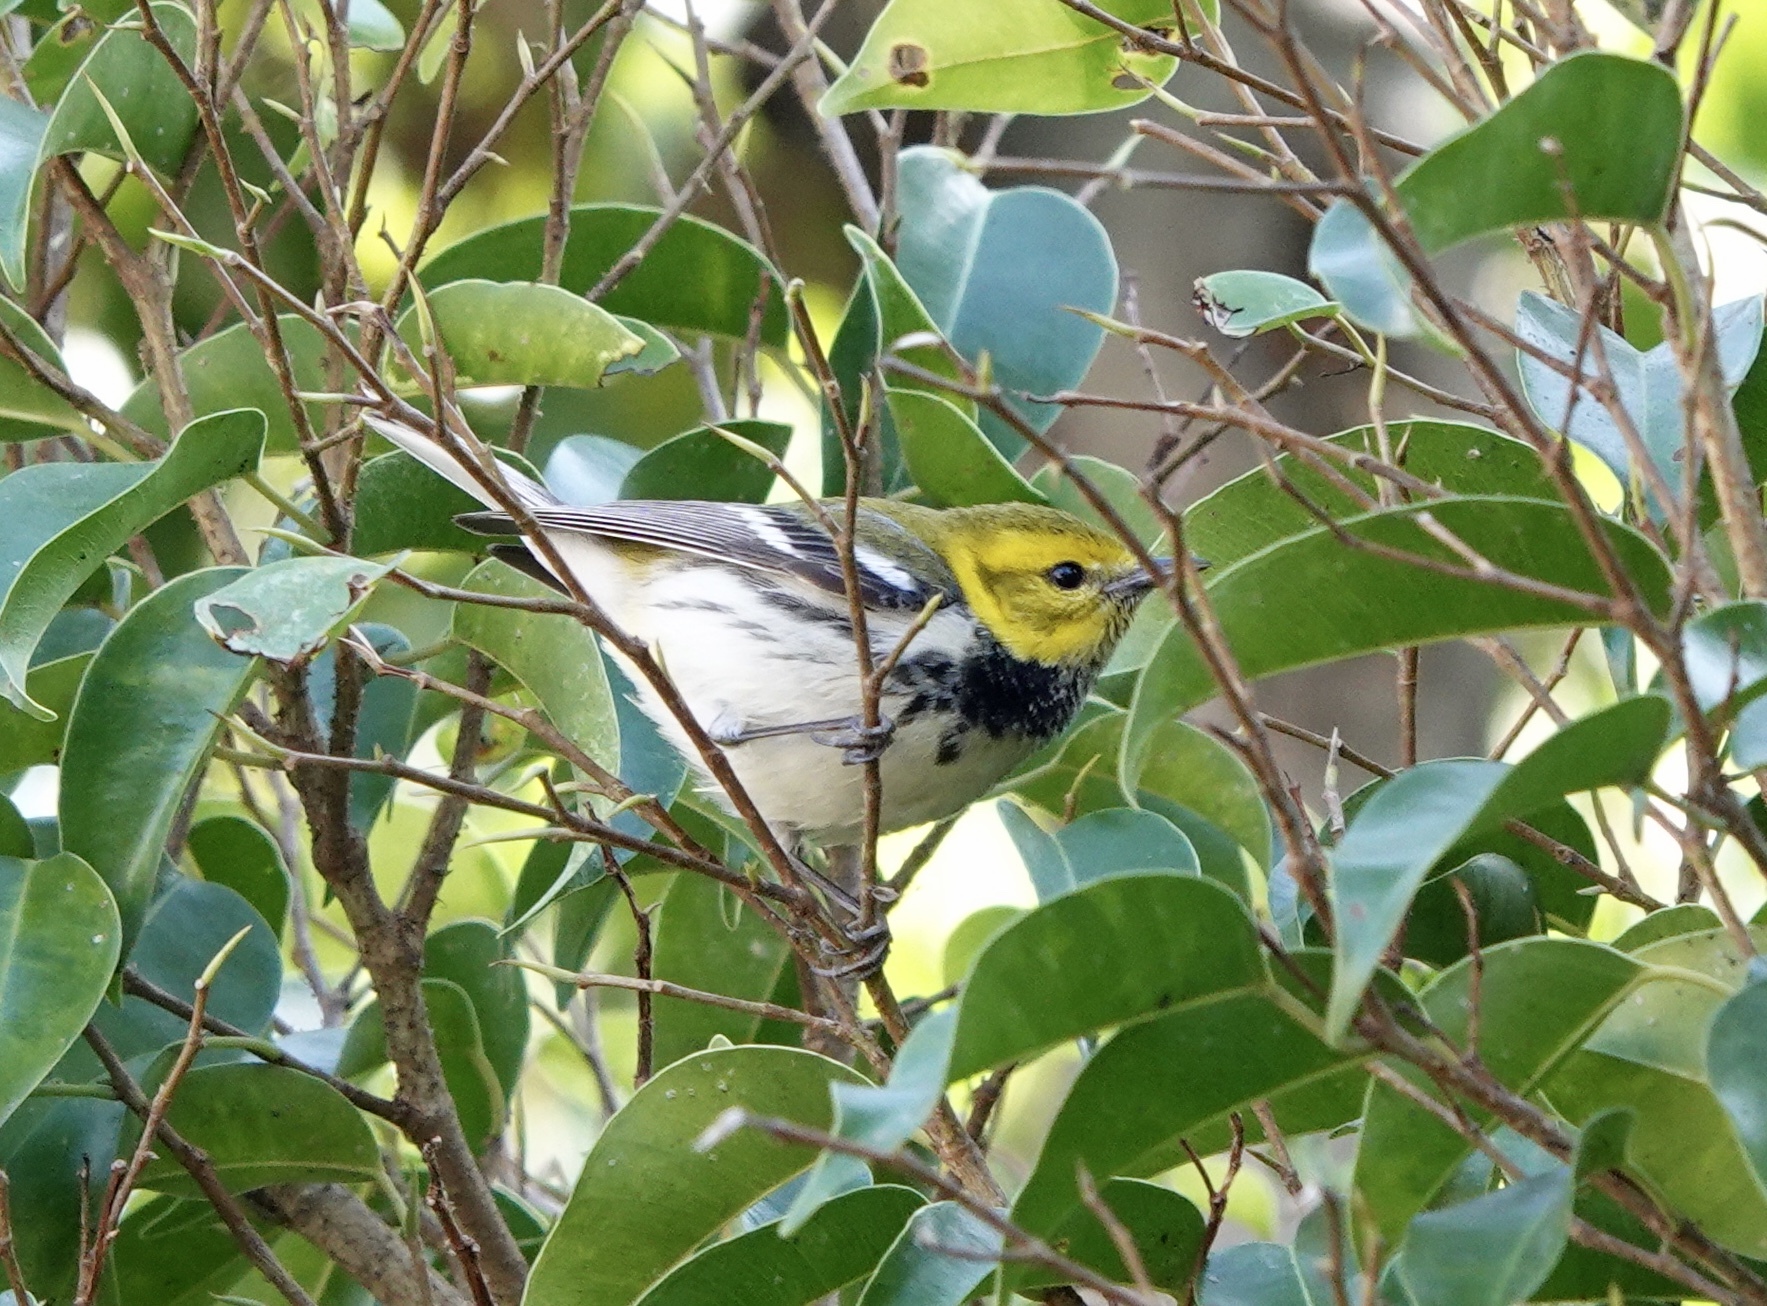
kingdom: Animalia
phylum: Chordata
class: Aves
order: Passeriformes
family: Parulidae
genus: Setophaga
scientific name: Setophaga virens
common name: Black-throated green warbler
